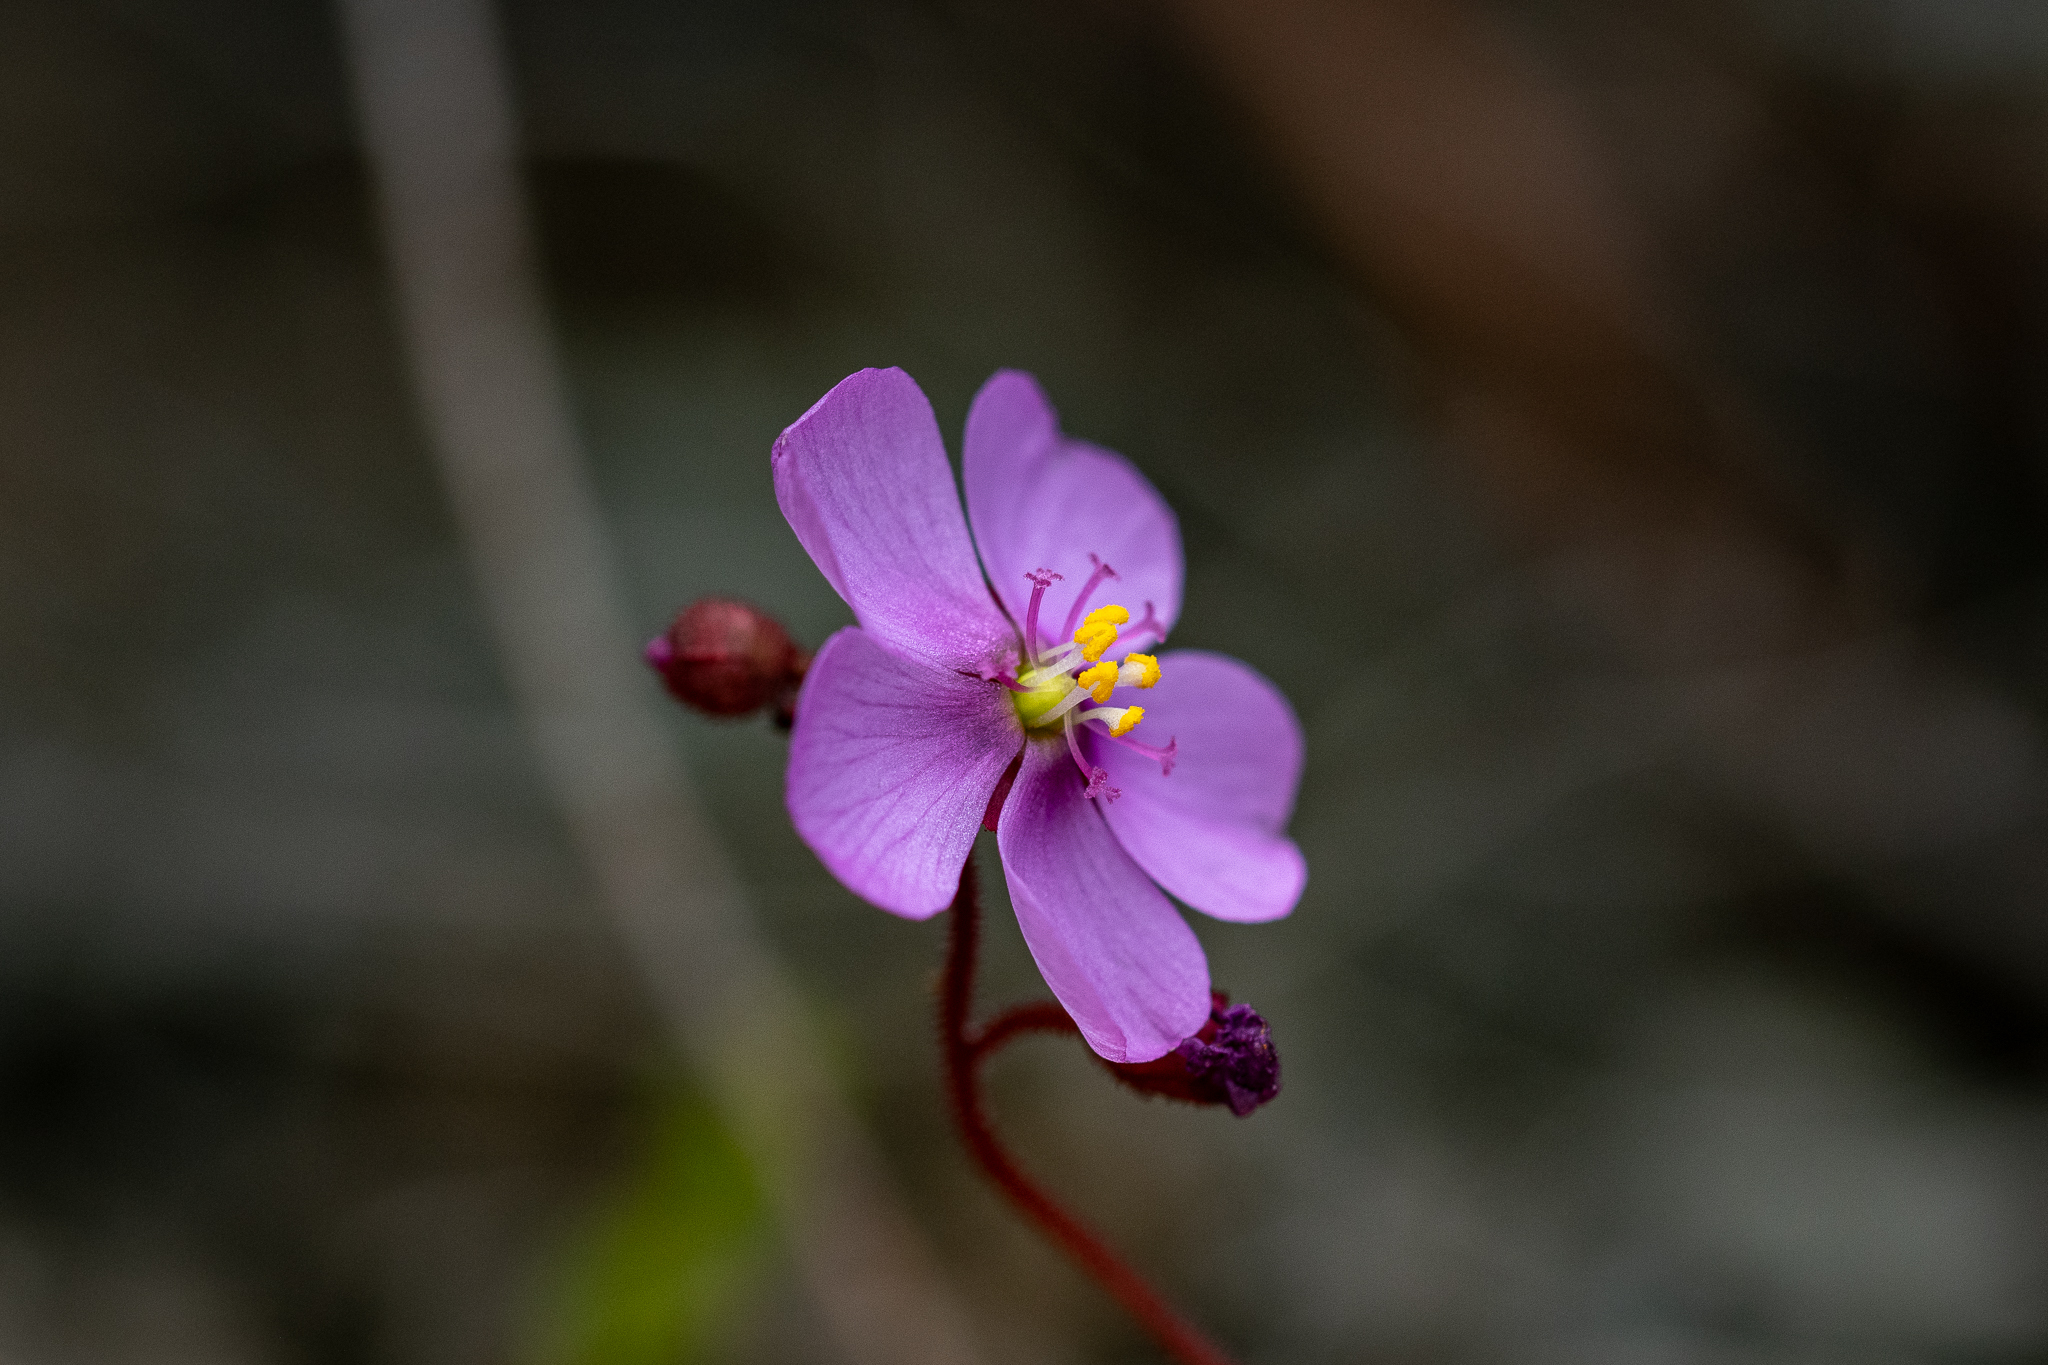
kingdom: Plantae
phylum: Tracheophyta
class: Magnoliopsida
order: Caryophyllales
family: Droseraceae
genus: Drosera
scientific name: Drosera cuneifolia
